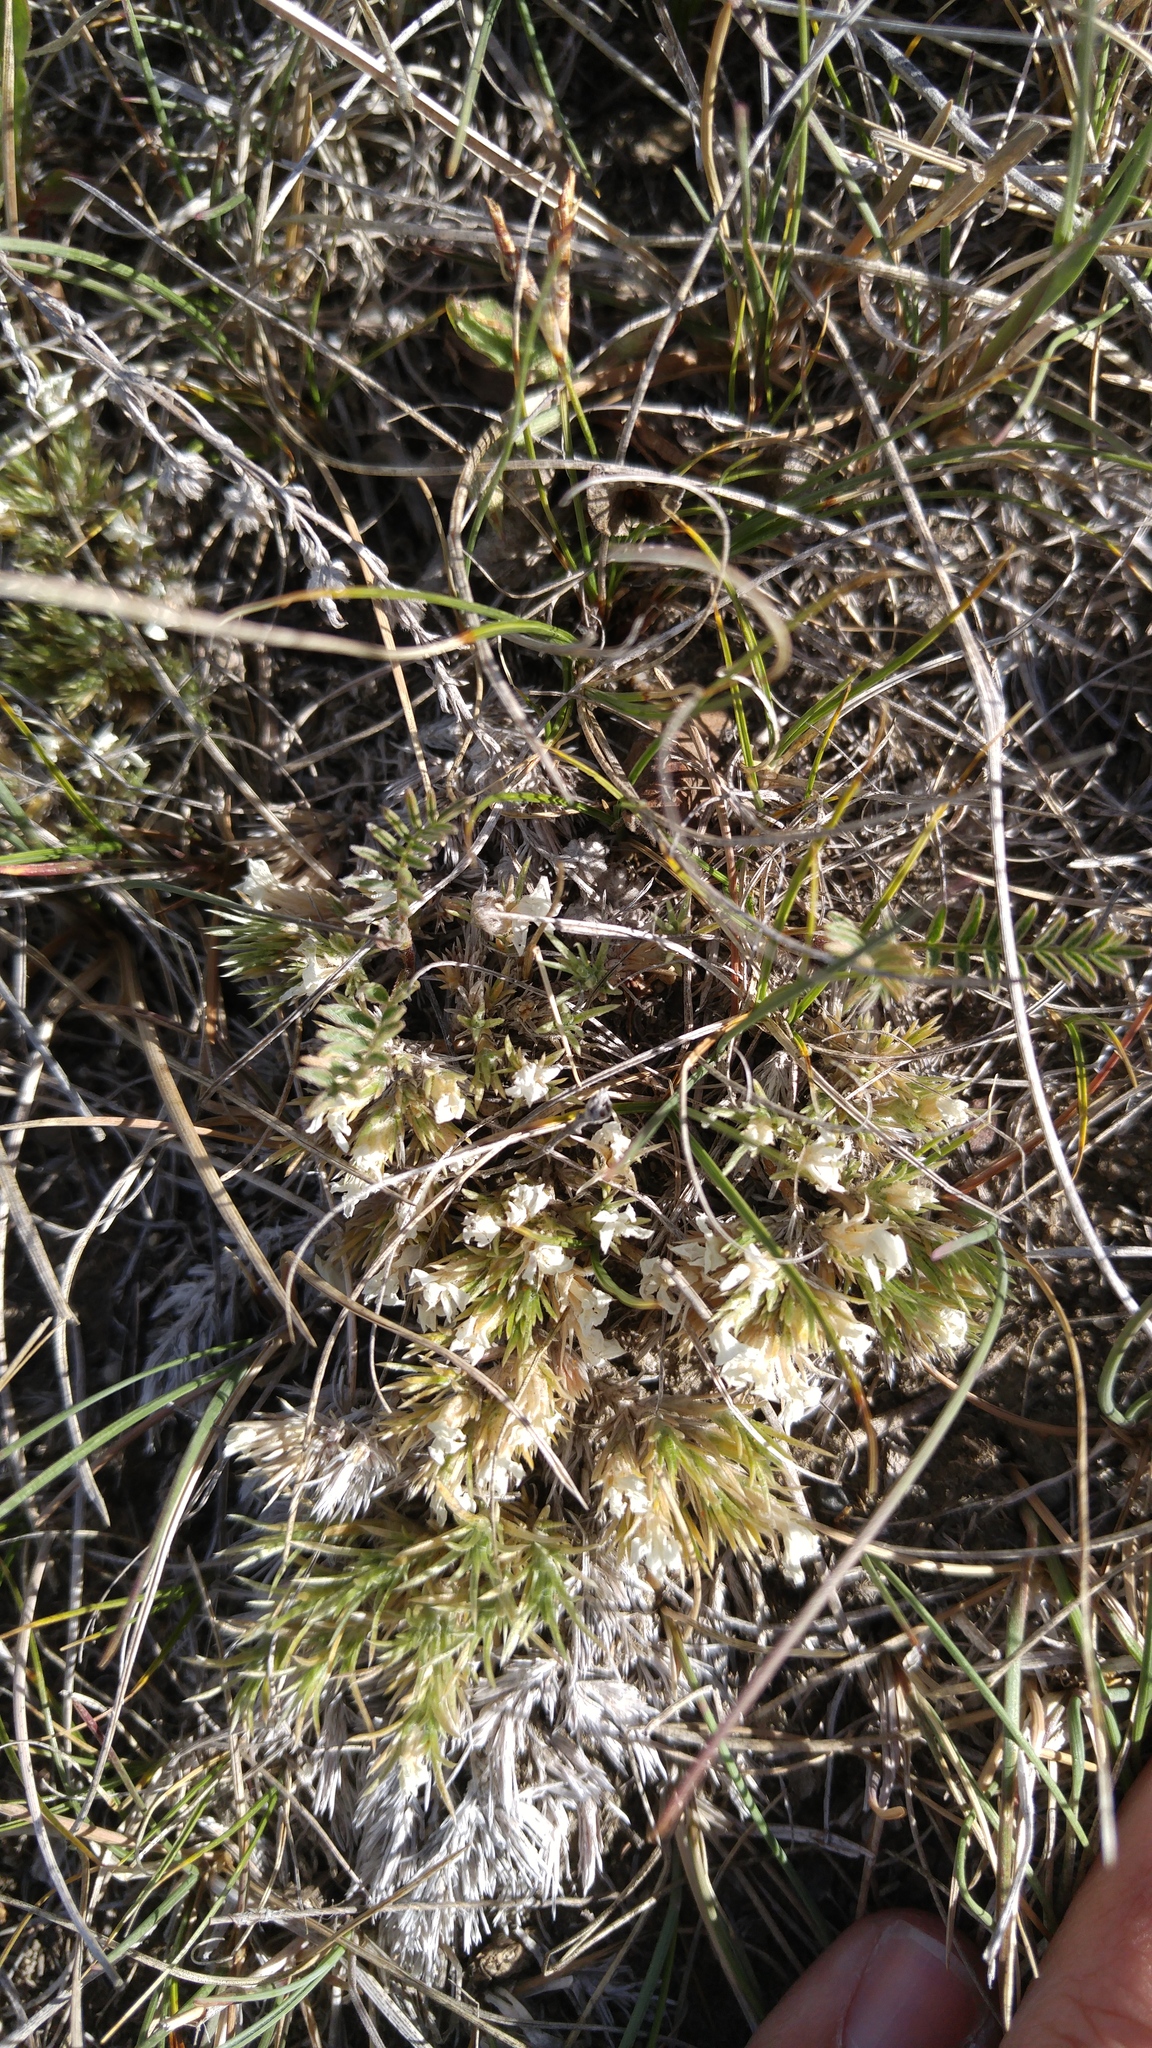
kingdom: Plantae
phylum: Tracheophyta
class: Magnoliopsida
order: Ericales
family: Polemoniaceae
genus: Phlox
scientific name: Phlox hoodii
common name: Moss phlox
